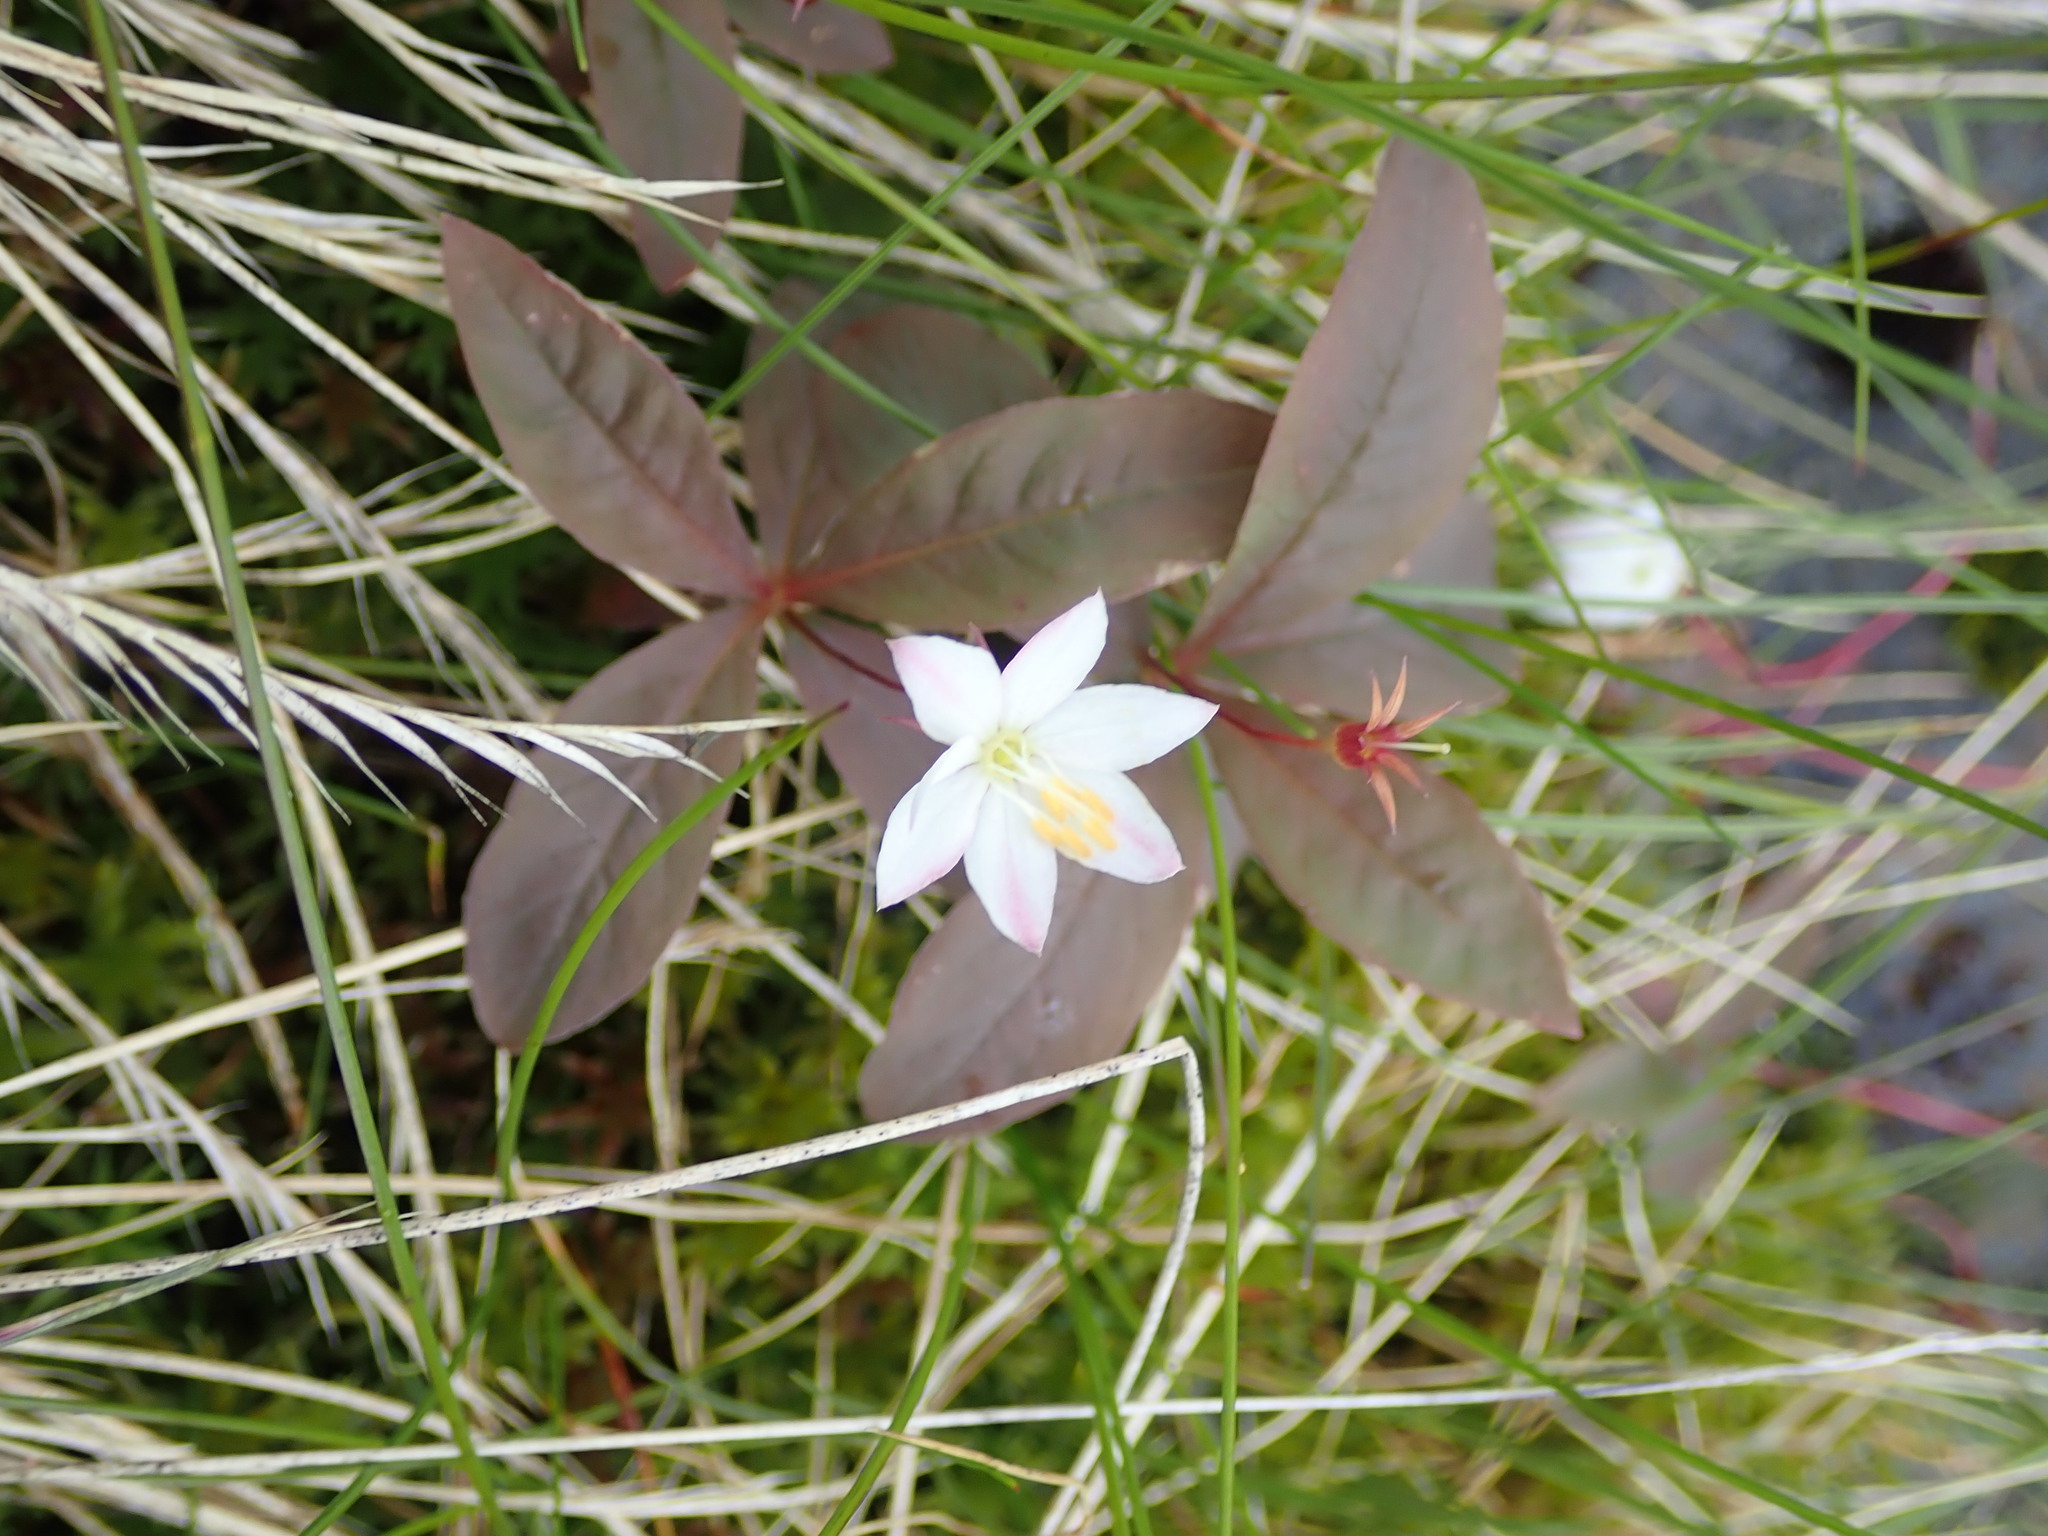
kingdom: Plantae
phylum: Tracheophyta
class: Magnoliopsida
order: Ericales
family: Primulaceae
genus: Lysimachia
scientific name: Lysimachia europaea
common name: Arctic starflower
